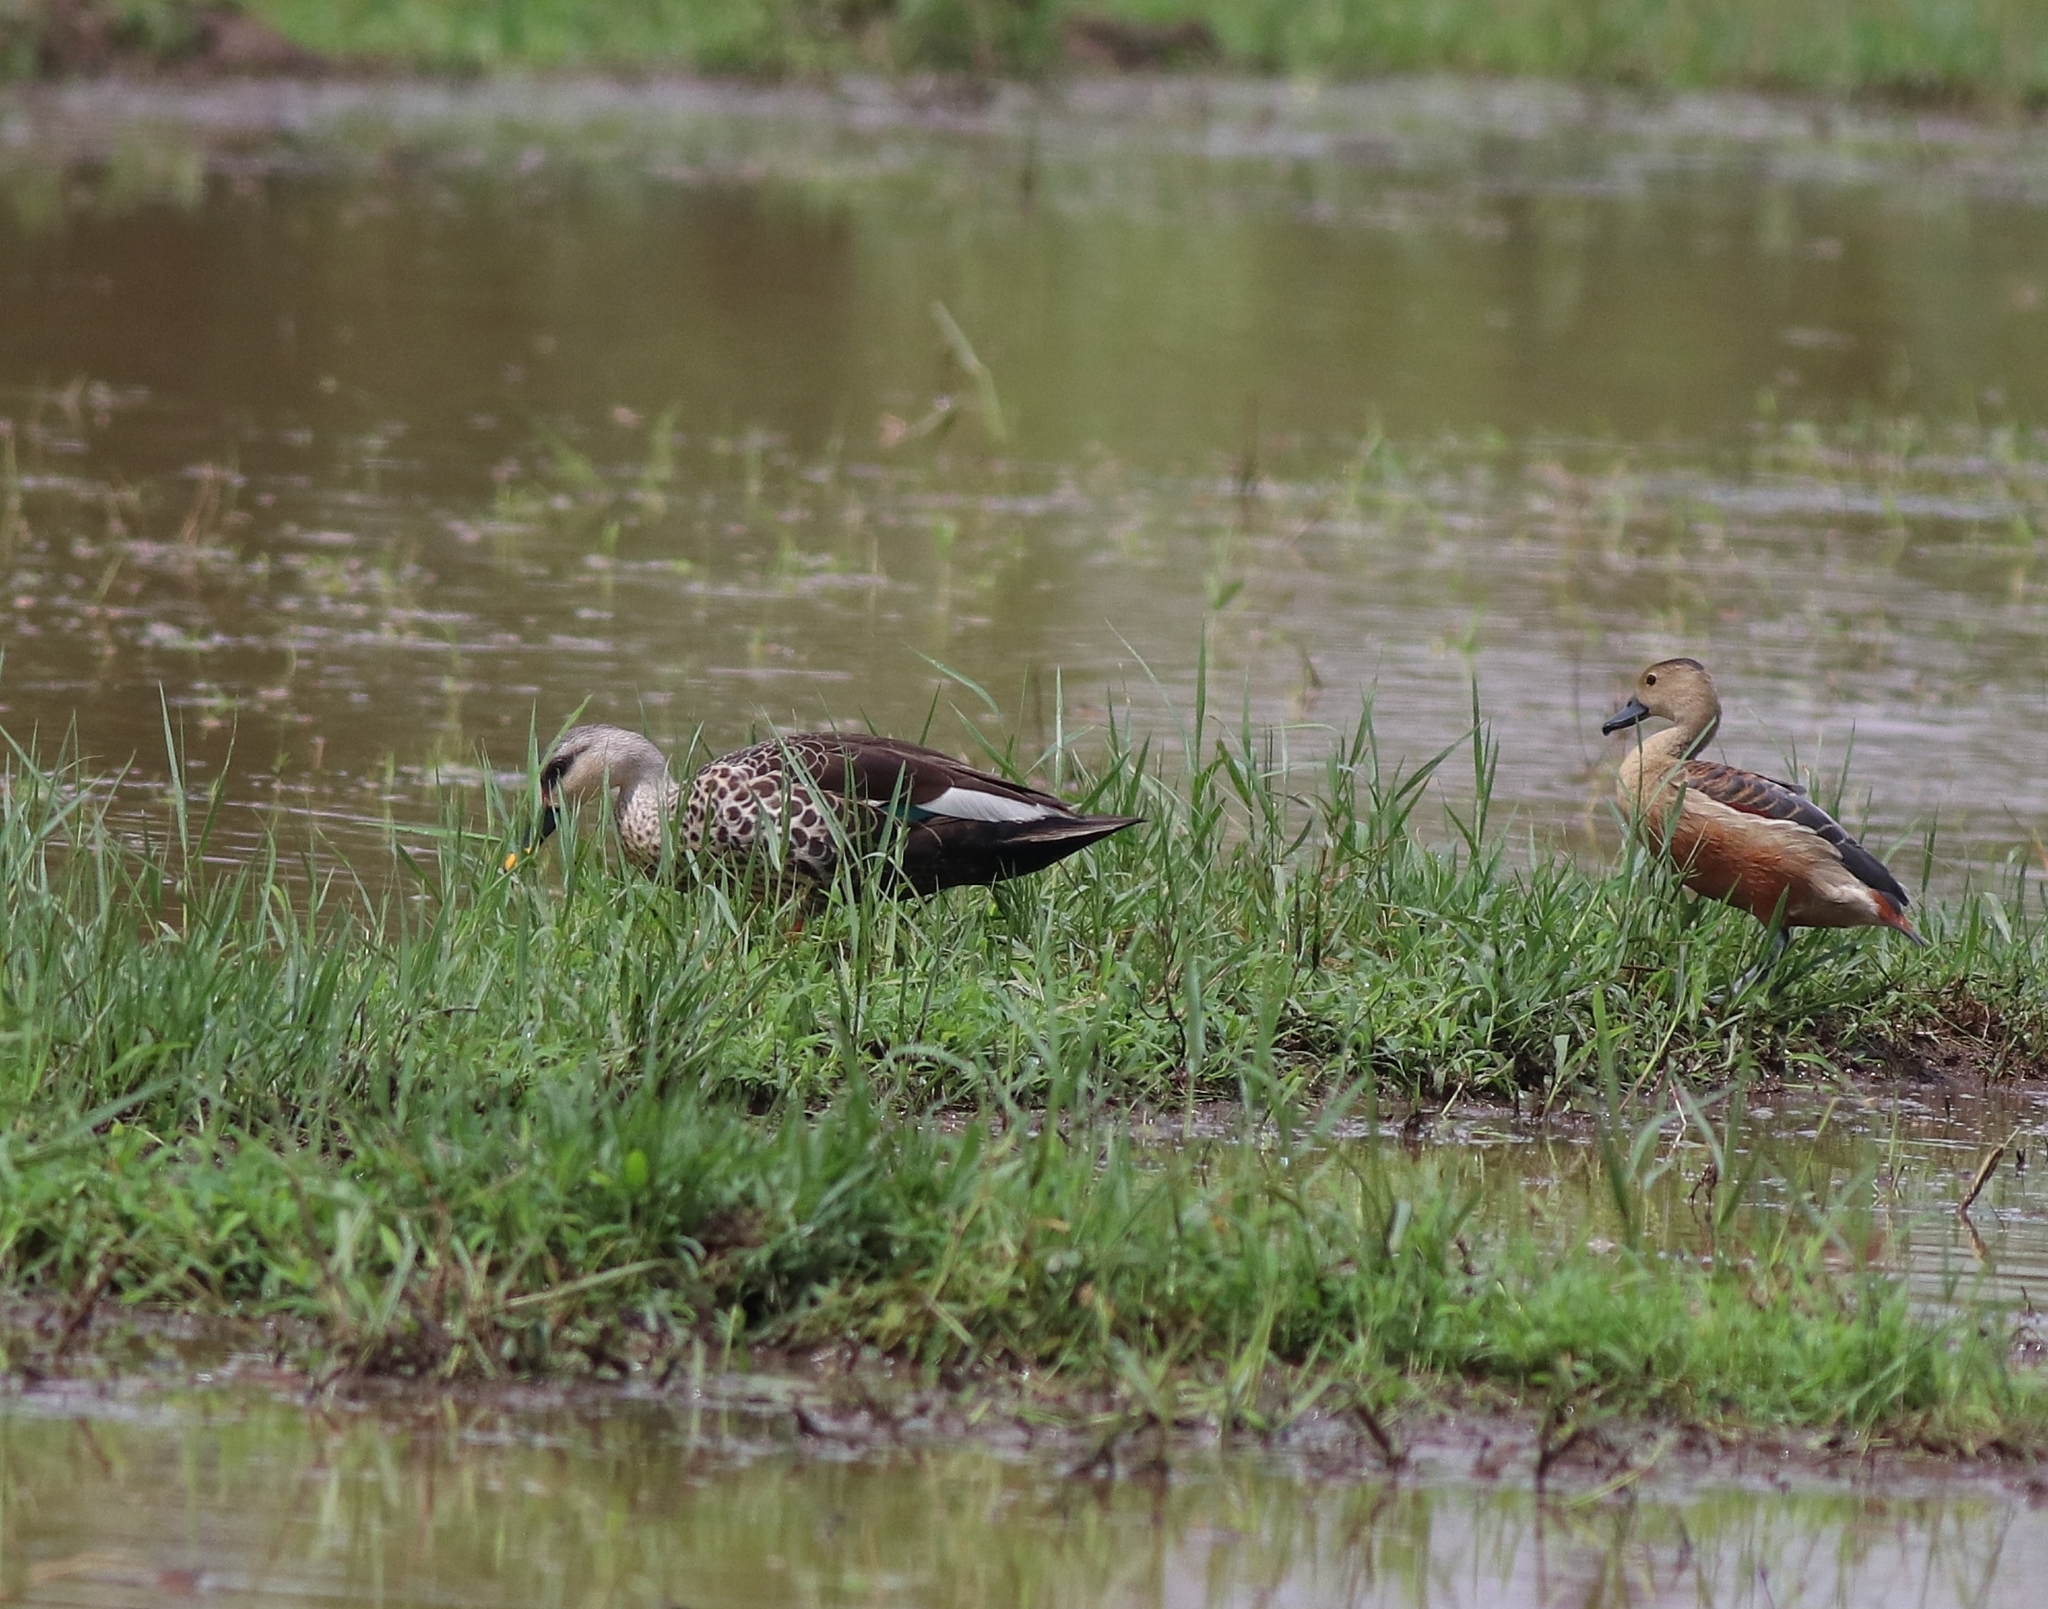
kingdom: Animalia
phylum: Chordata
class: Aves
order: Anseriformes
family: Anatidae
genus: Dendrocygna
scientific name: Dendrocygna javanica
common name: Lesser whistling-duck
